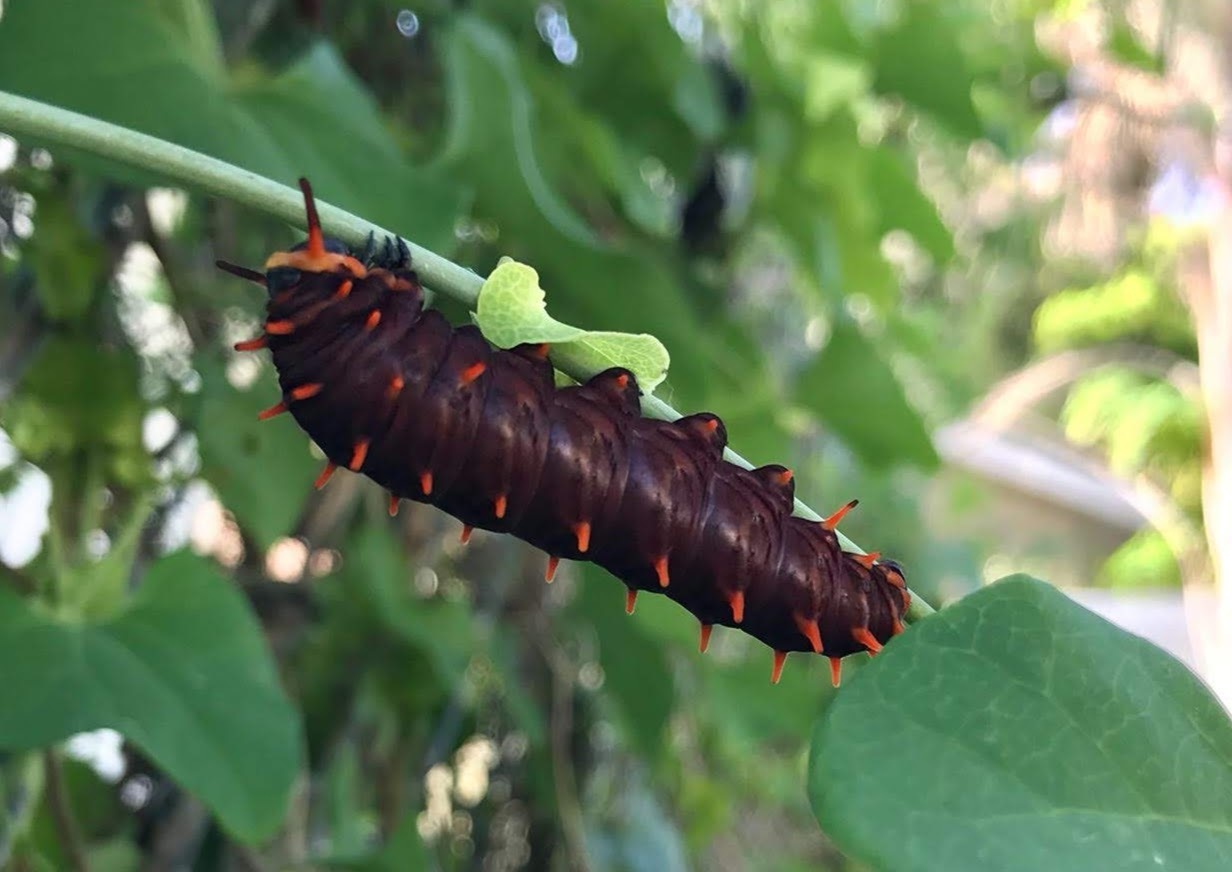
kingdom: Animalia
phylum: Arthropoda
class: Insecta
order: Lepidoptera
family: Papilionidae
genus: Battus
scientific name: Battus polydamas
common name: Polydamas swallowtail
